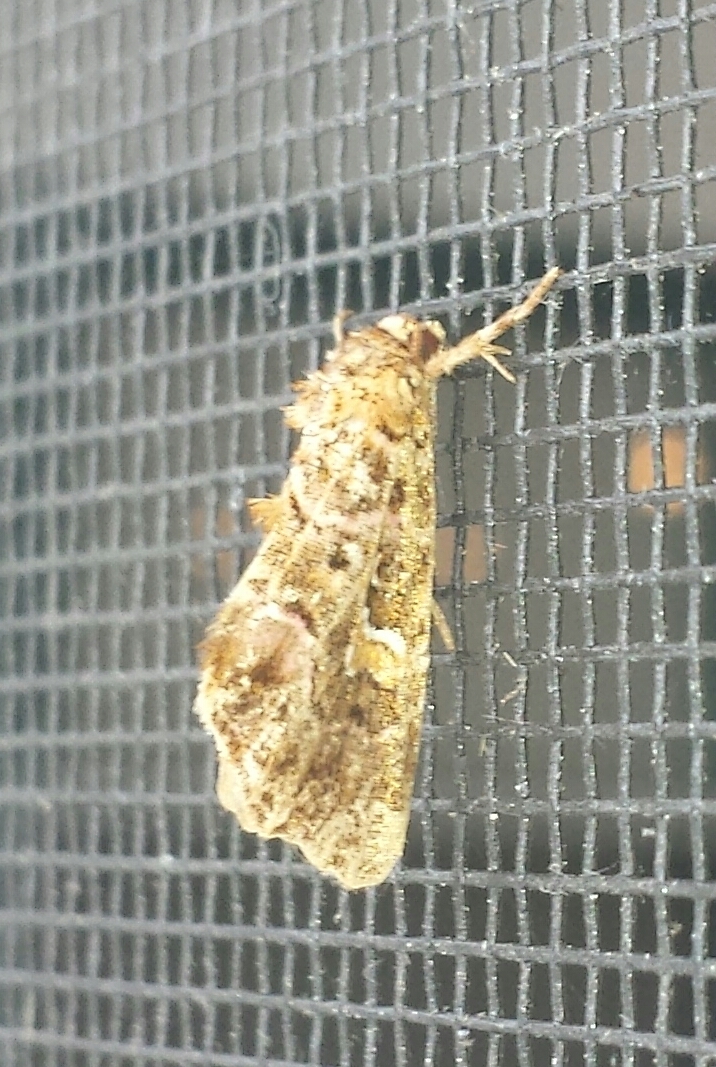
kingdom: Animalia
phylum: Arthropoda
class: Insecta
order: Lepidoptera
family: Noctuidae
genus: Callopistria
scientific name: Callopistria mollissima
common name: Pink-shaded fern moth
